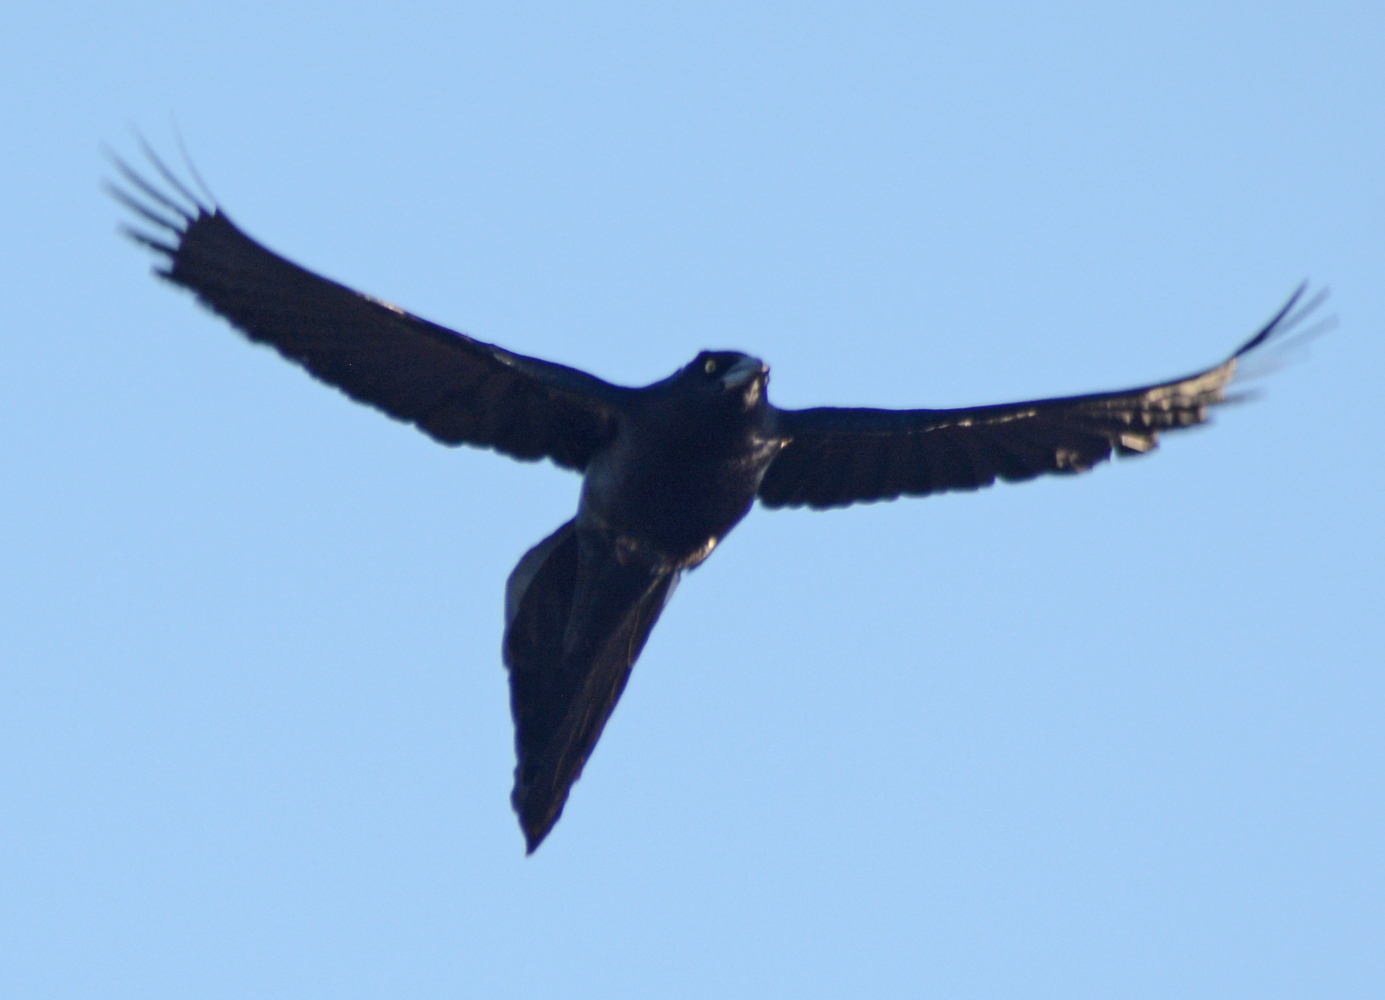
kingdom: Animalia
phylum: Chordata
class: Aves
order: Passeriformes
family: Icteridae
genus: Quiscalus
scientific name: Quiscalus mexicanus
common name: Great-tailed grackle
